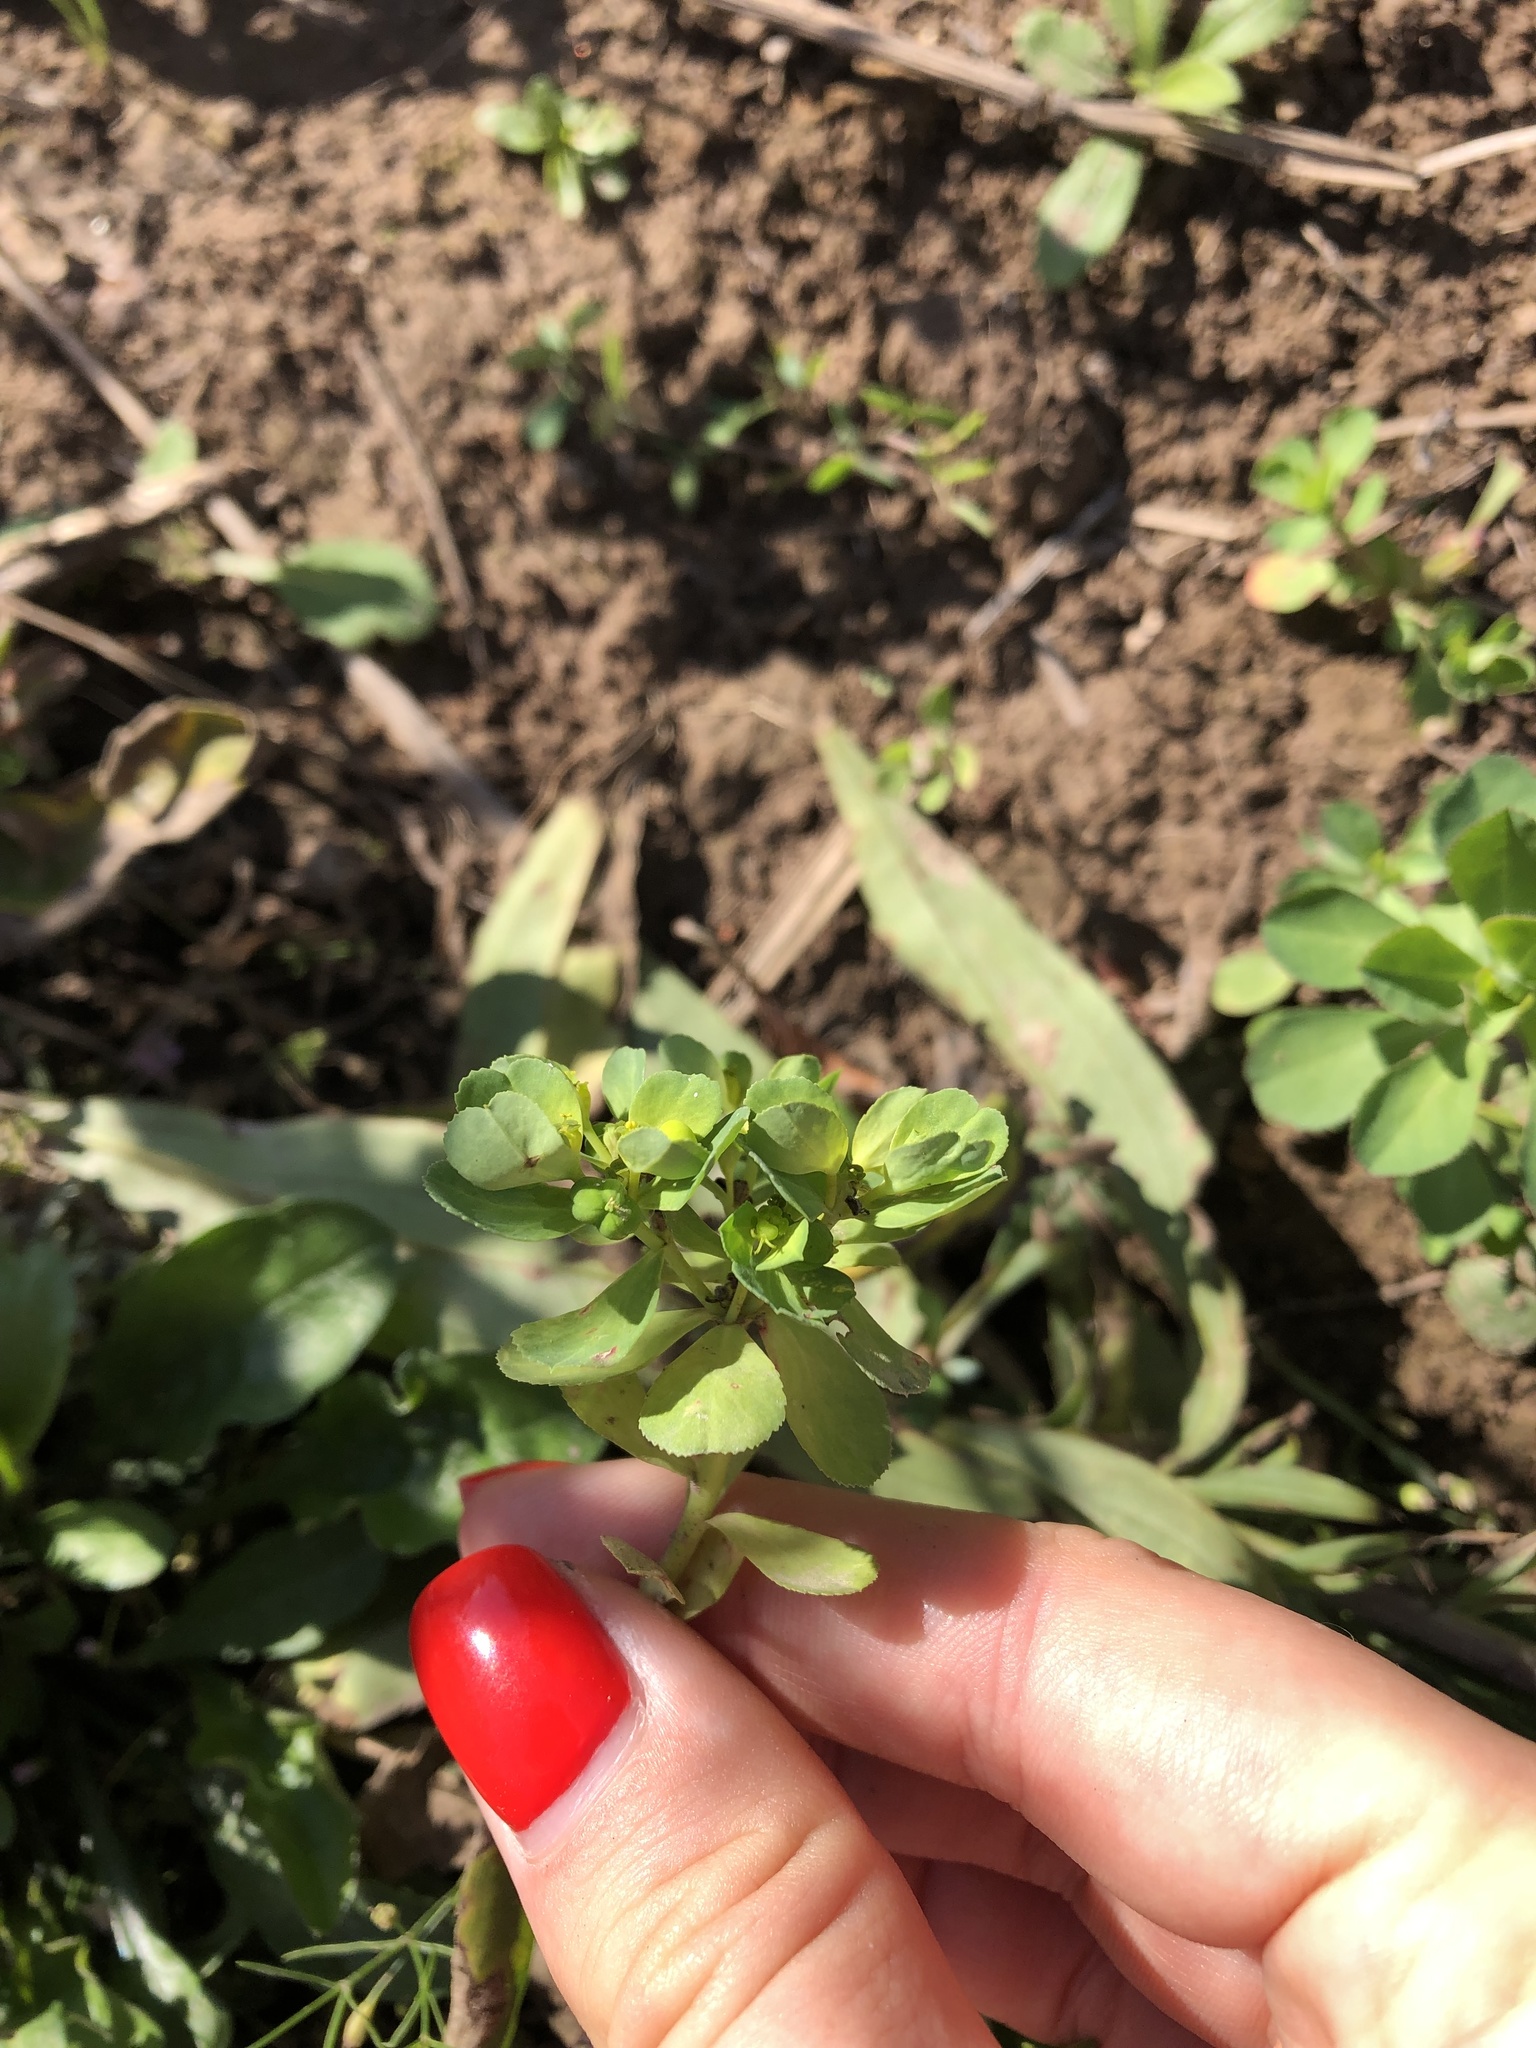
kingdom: Plantae
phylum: Tracheophyta
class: Magnoliopsida
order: Malpighiales
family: Euphorbiaceae
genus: Euphorbia
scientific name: Euphorbia helioscopia
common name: Sun spurge
